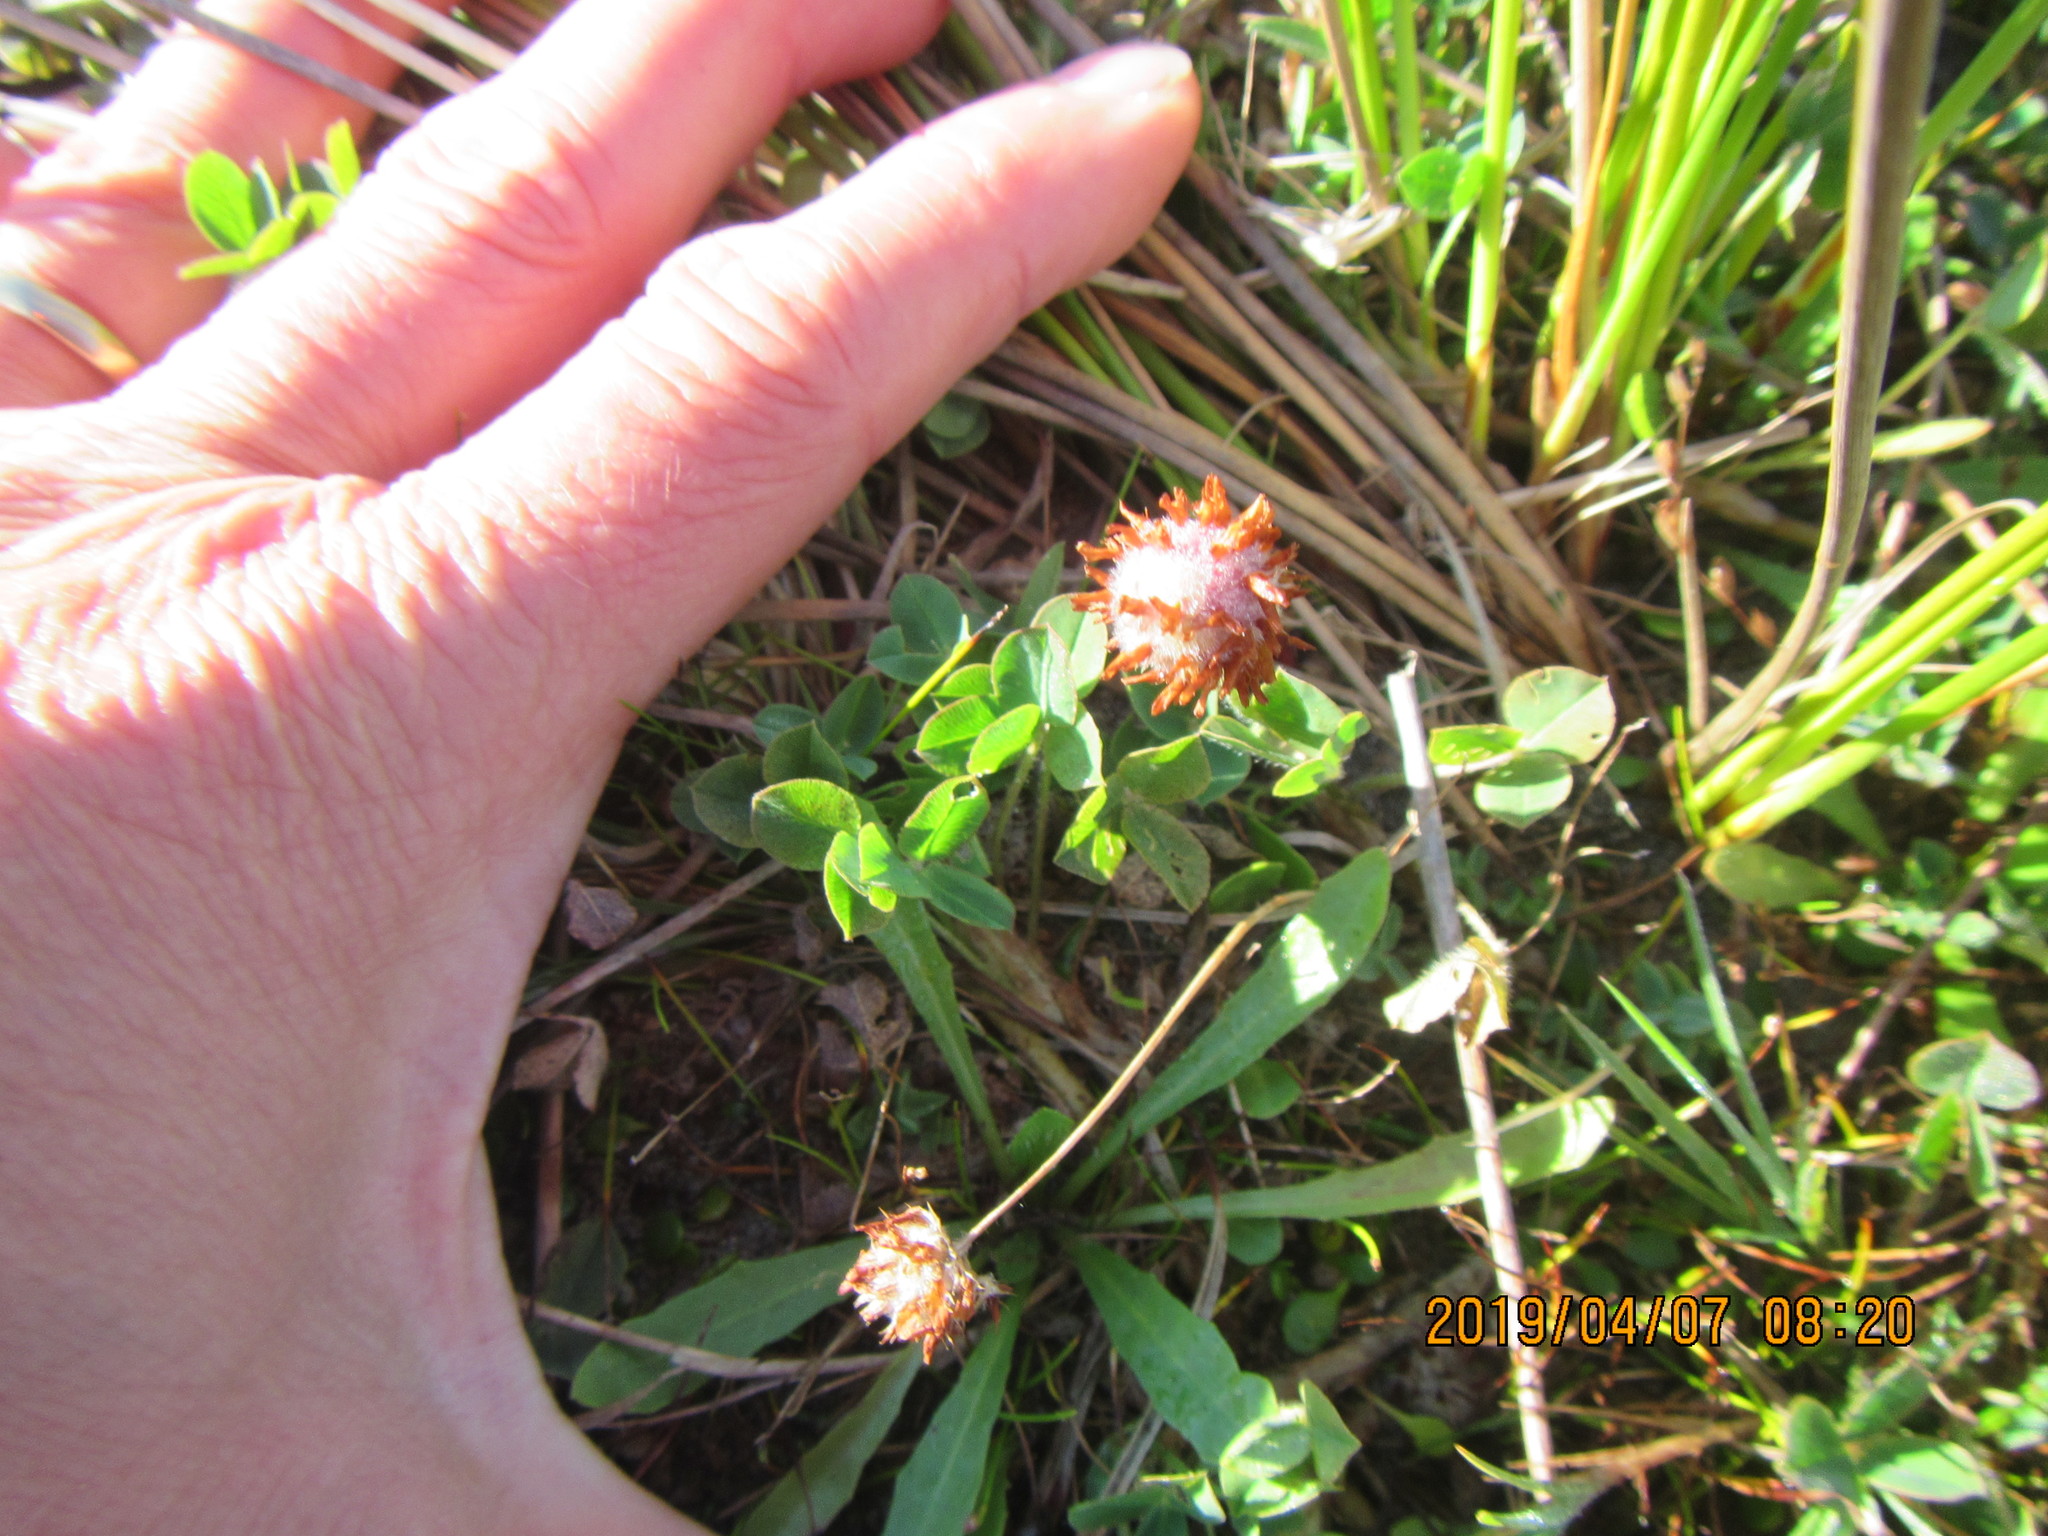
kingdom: Plantae
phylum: Tracheophyta
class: Magnoliopsida
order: Fabales
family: Fabaceae
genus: Trifolium
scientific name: Trifolium fragiferum
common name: Strawberry clover
